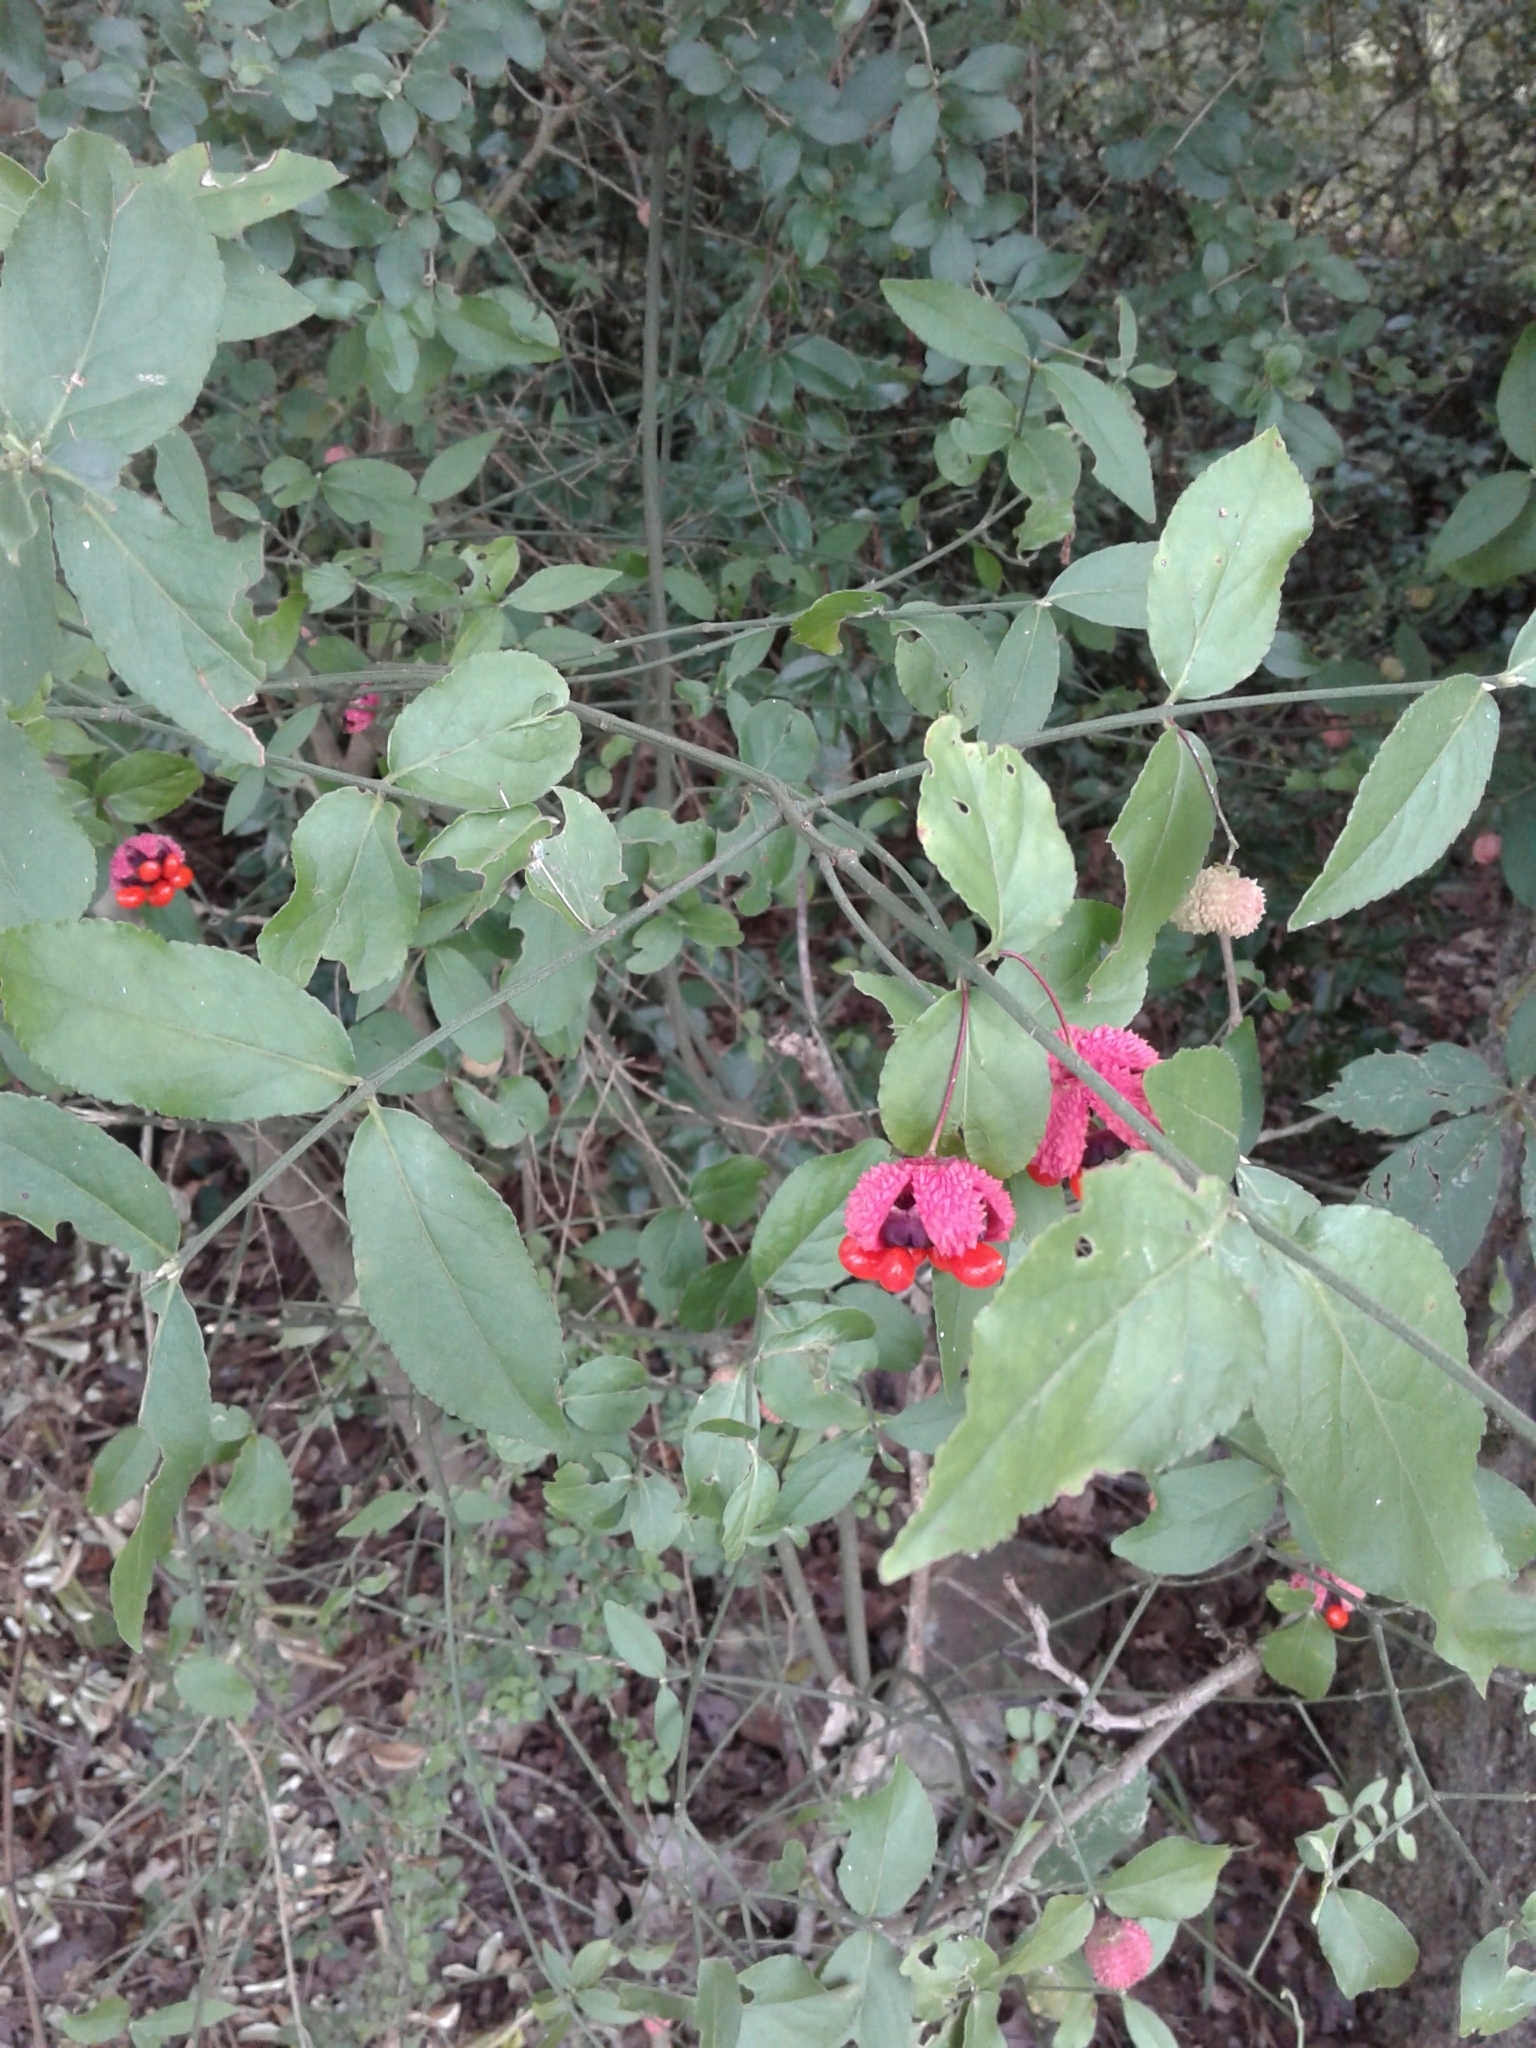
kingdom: Plantae
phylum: Tracheophyta
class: Magnoliopsida
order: Celastrales
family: Celastraceae
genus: Euonymus
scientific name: Euonymus americanus
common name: Bursting-heart
